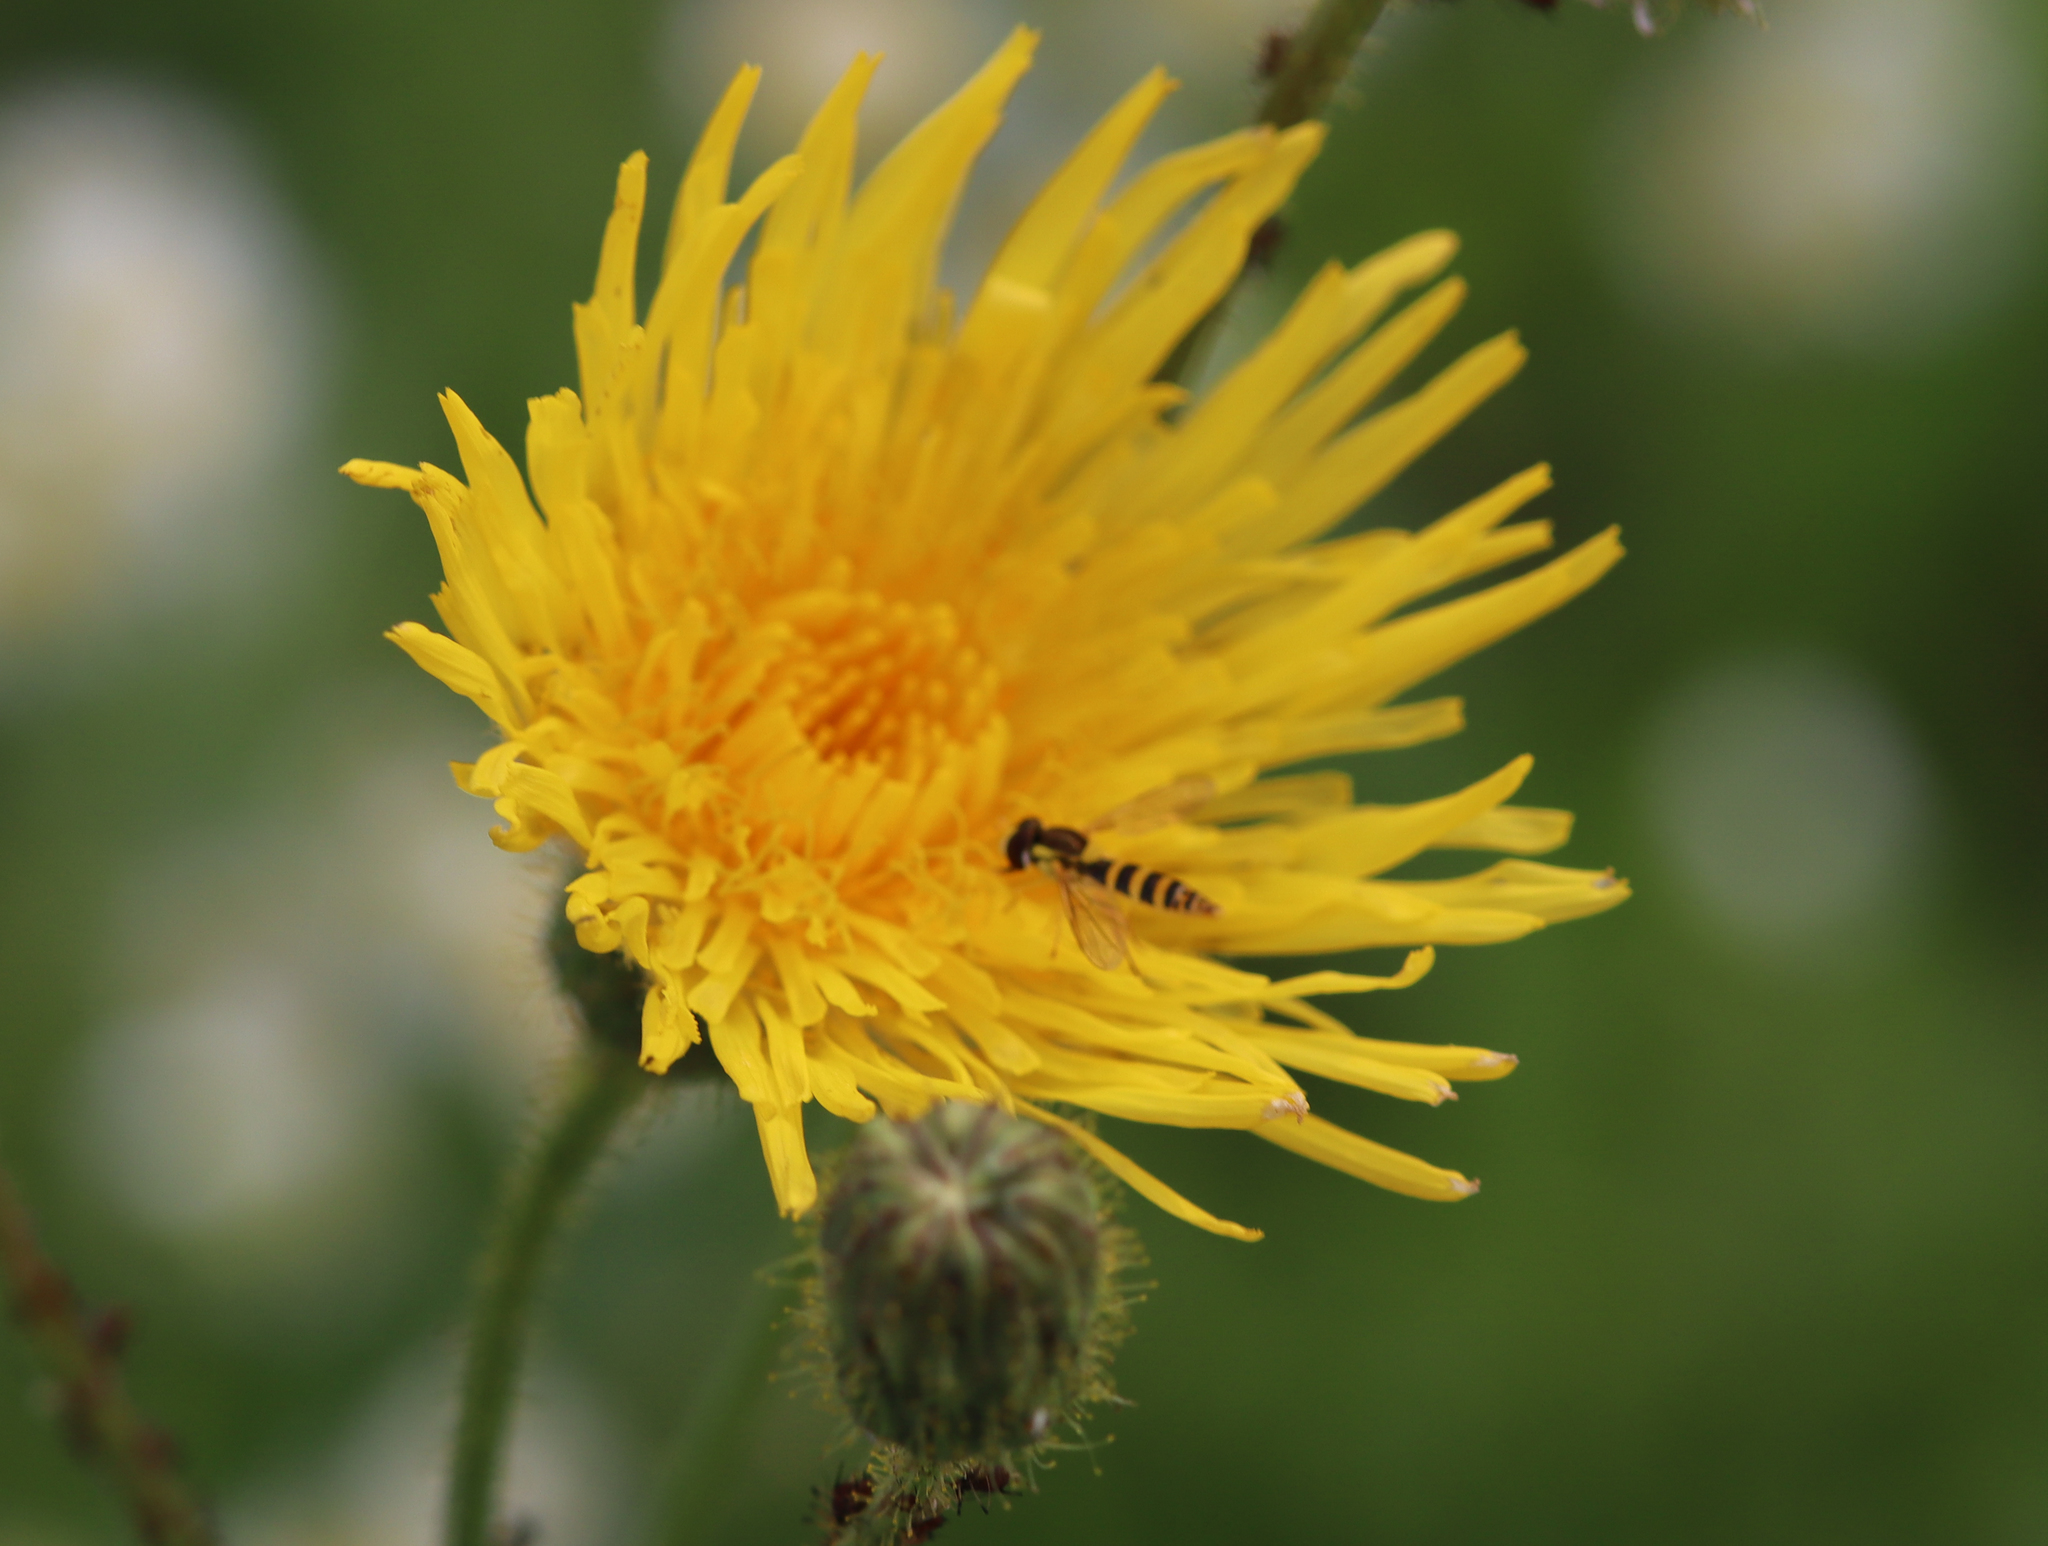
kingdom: Animalia
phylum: Arthropoda
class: Insecta
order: Diptera
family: Syrphidae
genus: Sphaerophoria
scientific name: Sphaerophoria
